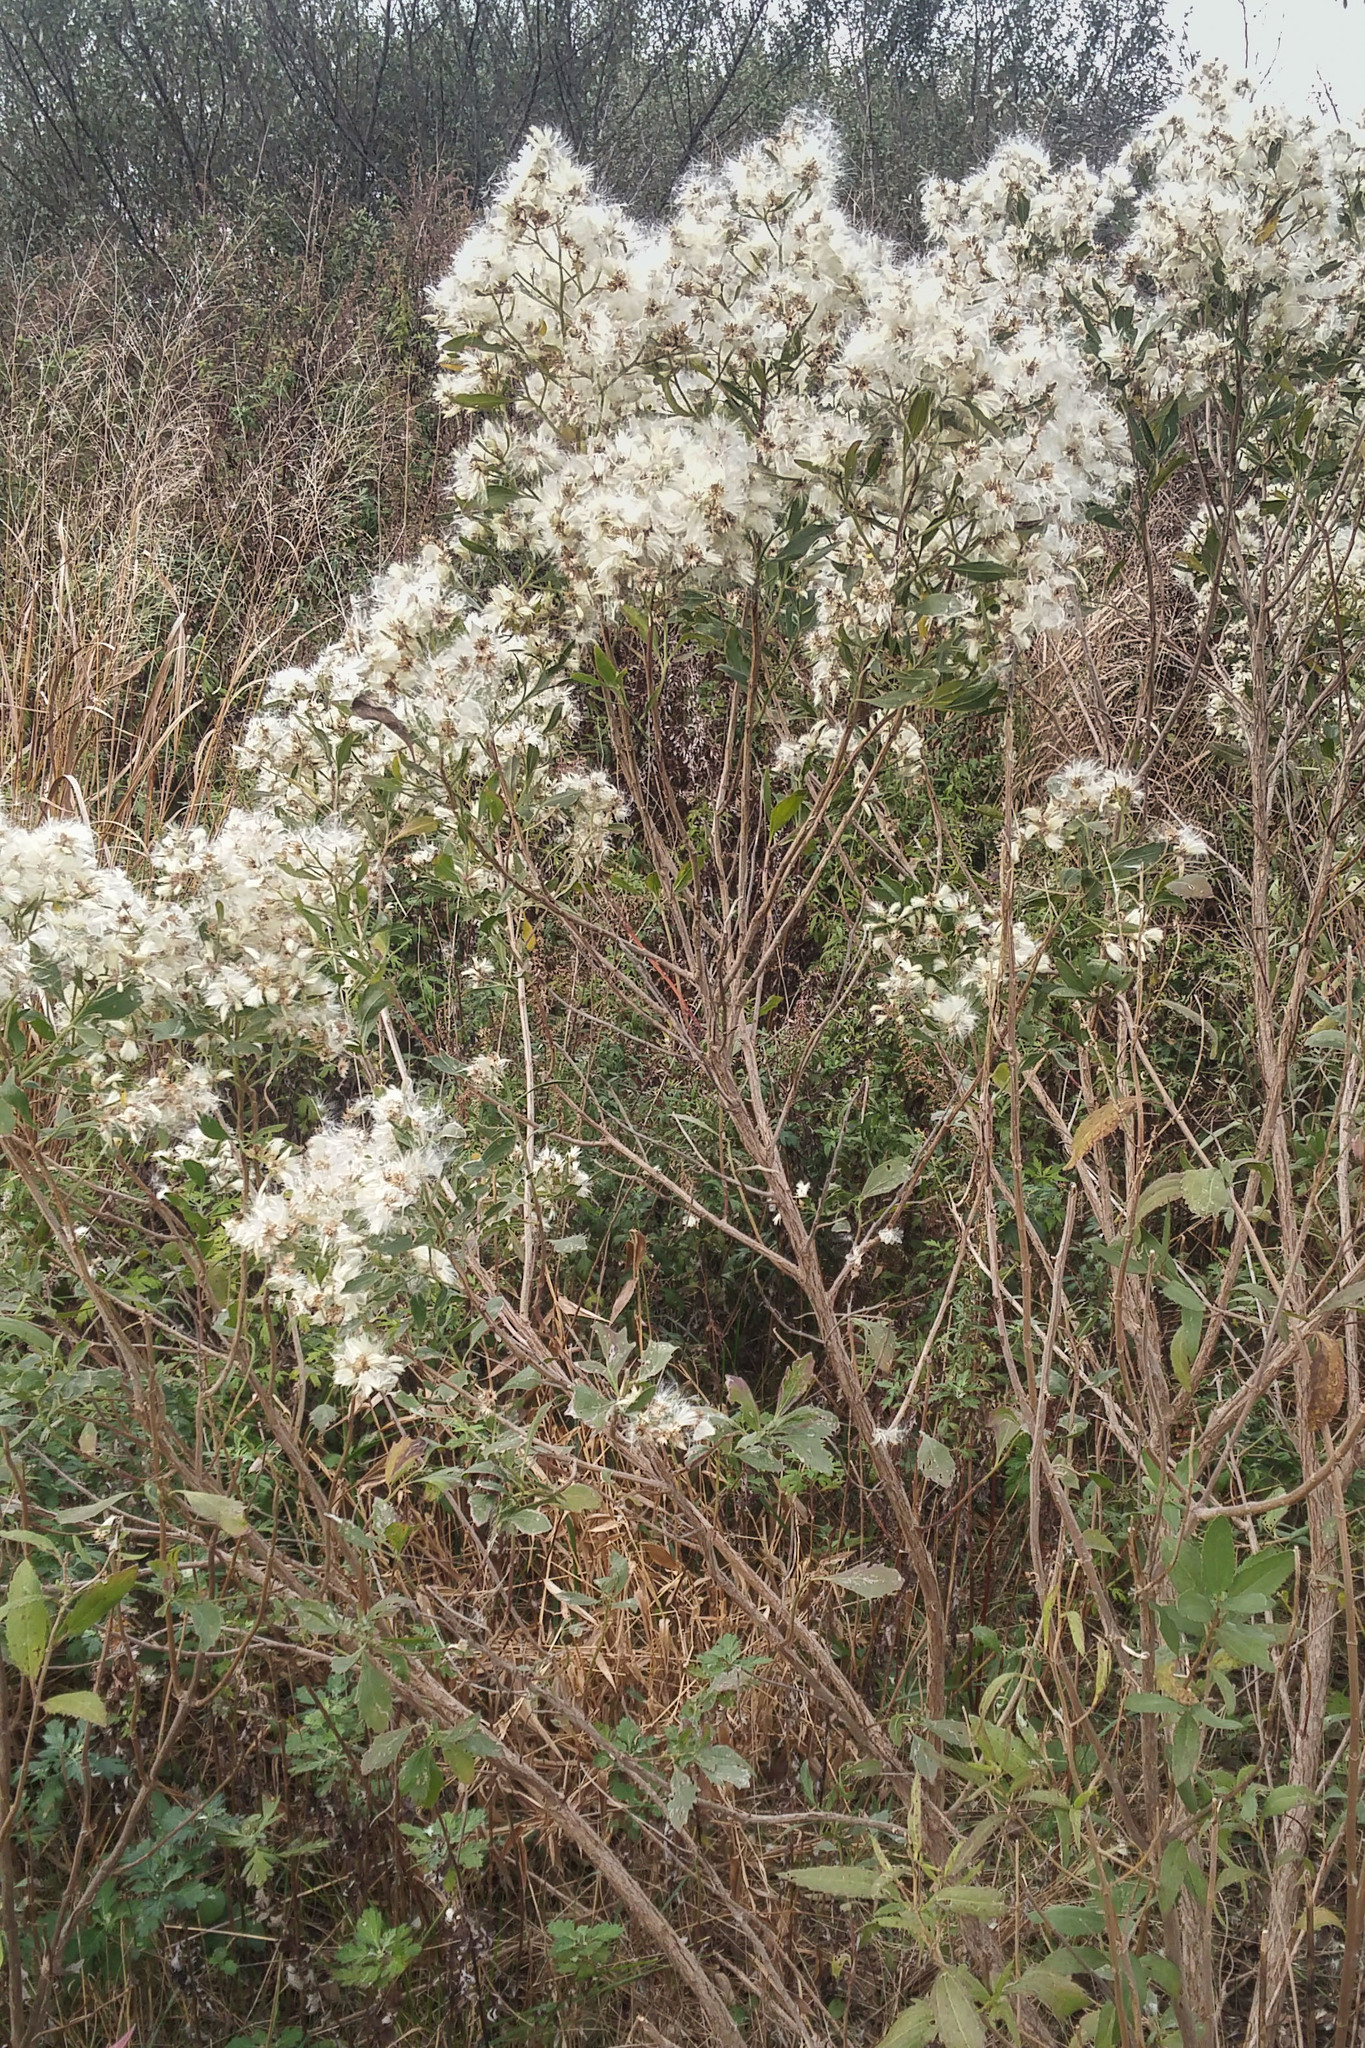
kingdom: Plantae
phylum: Tracheophyta
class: Magnoliopsida
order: Asterales
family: Asteraceae
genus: Baccharis
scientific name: Baccharis halimifolia
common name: Eastern baccharis
